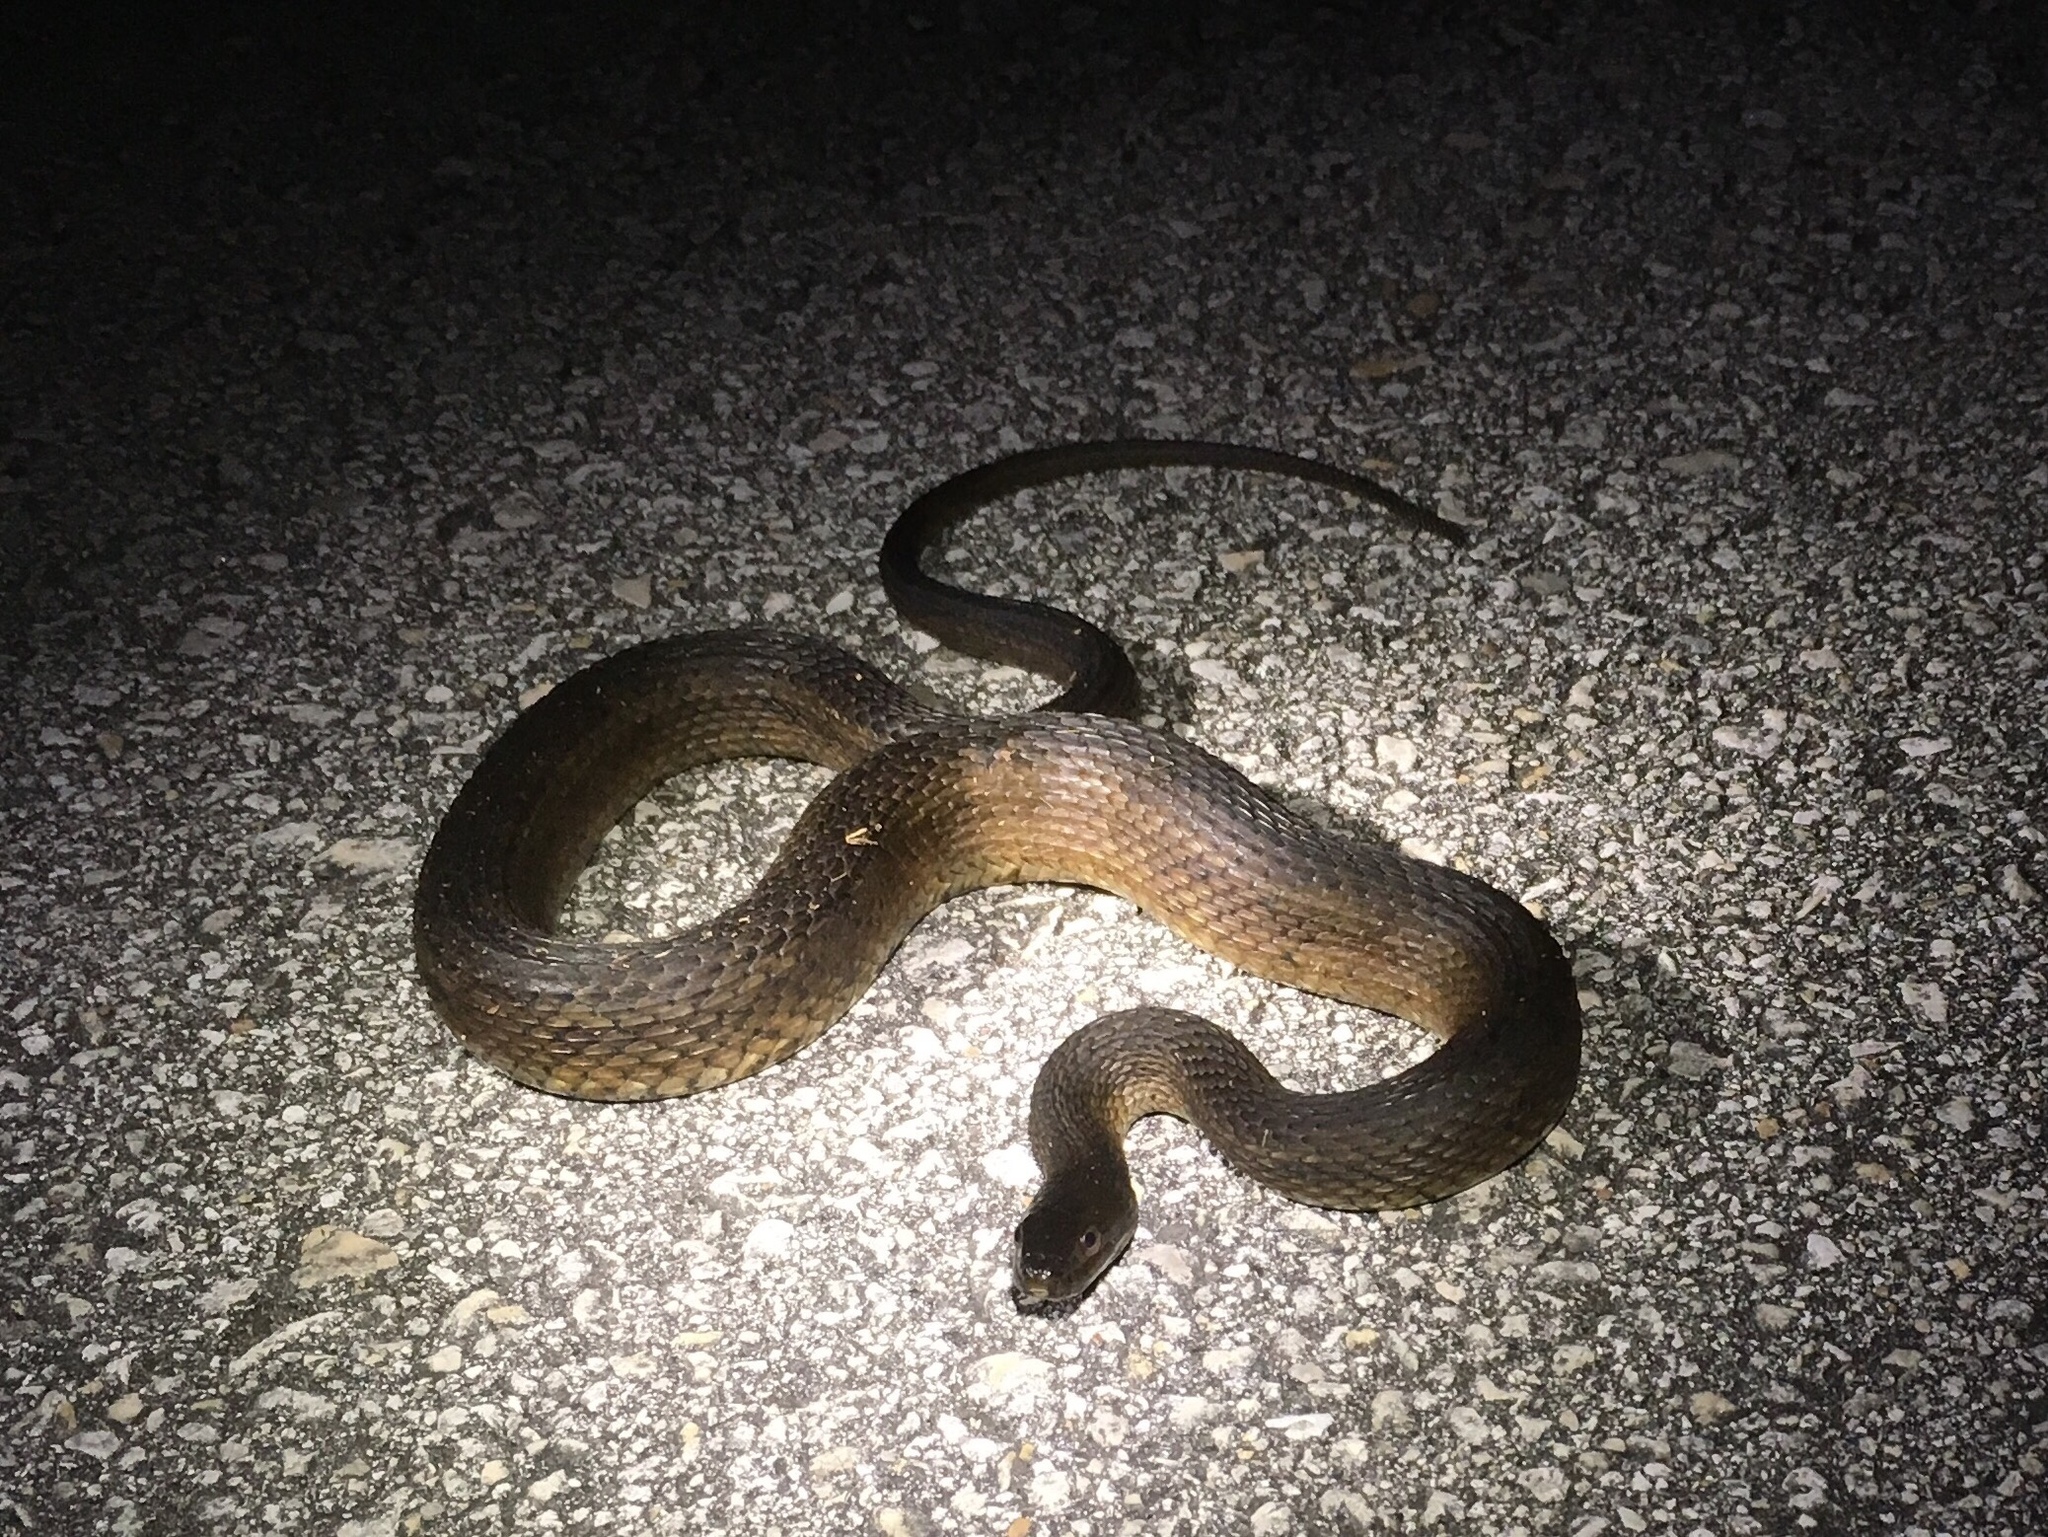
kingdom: Animalia
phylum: Chordata
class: Squamata
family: Colubridae
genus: Nerodia
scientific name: Nerodia clarkii
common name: Atlantic saltmarsh snake
